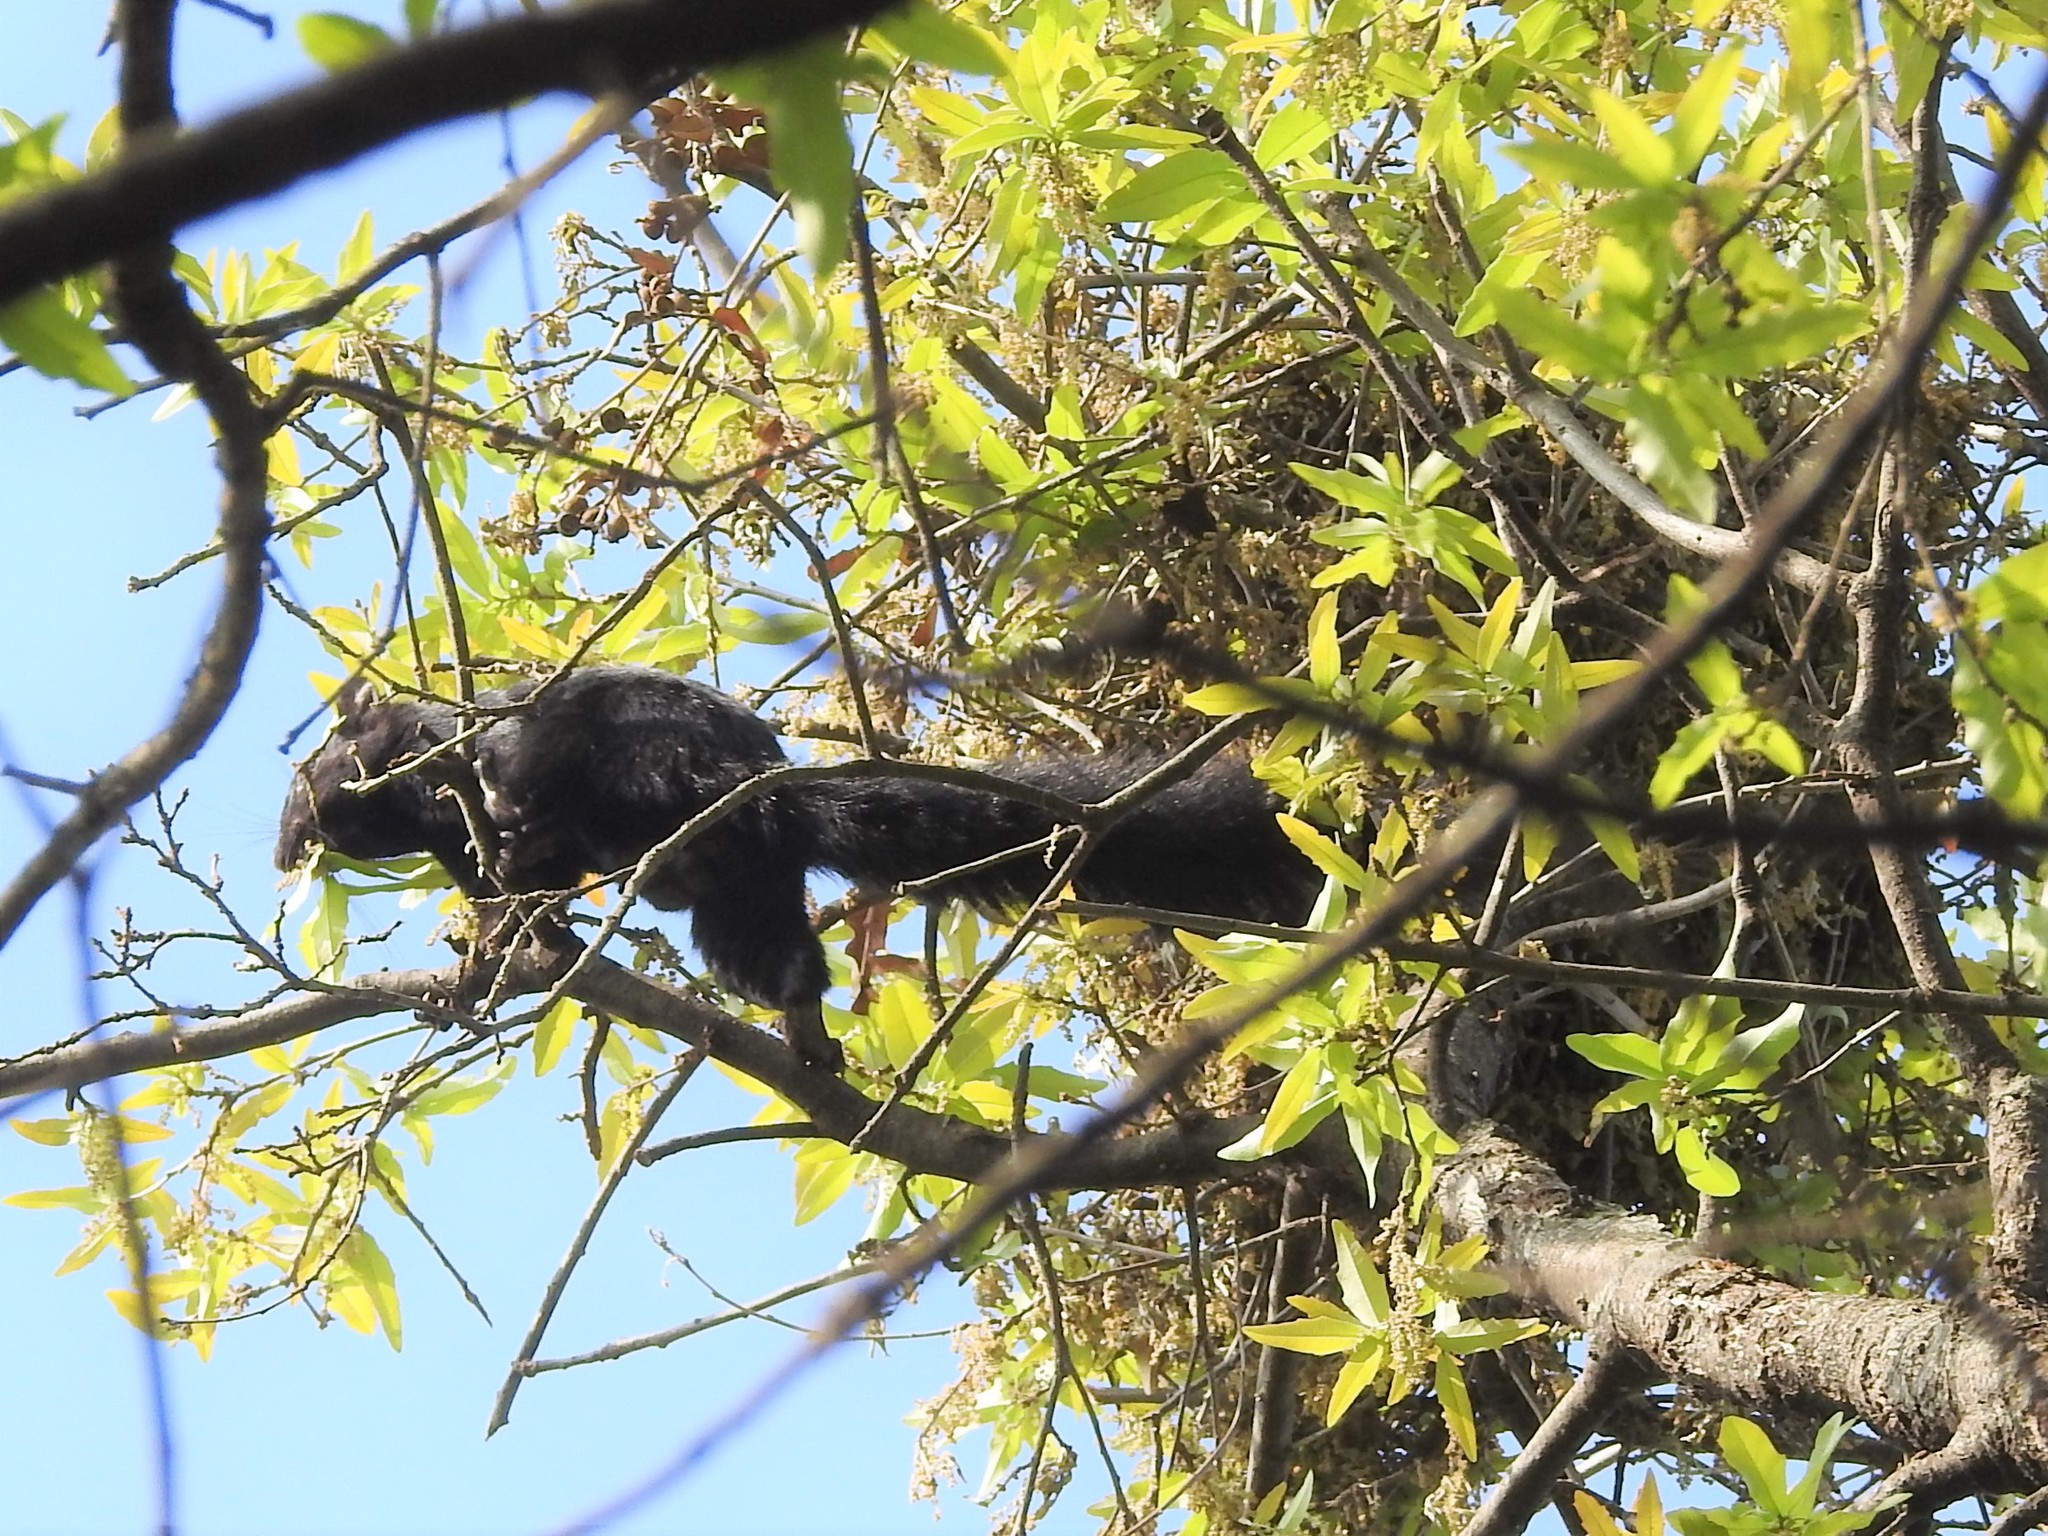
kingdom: Animalia
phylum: Chordata
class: Mammalia
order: Rodentia
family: Sciuridae
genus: Sciurus
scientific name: Sciurus aureogaster
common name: Red-bellied squirrel
